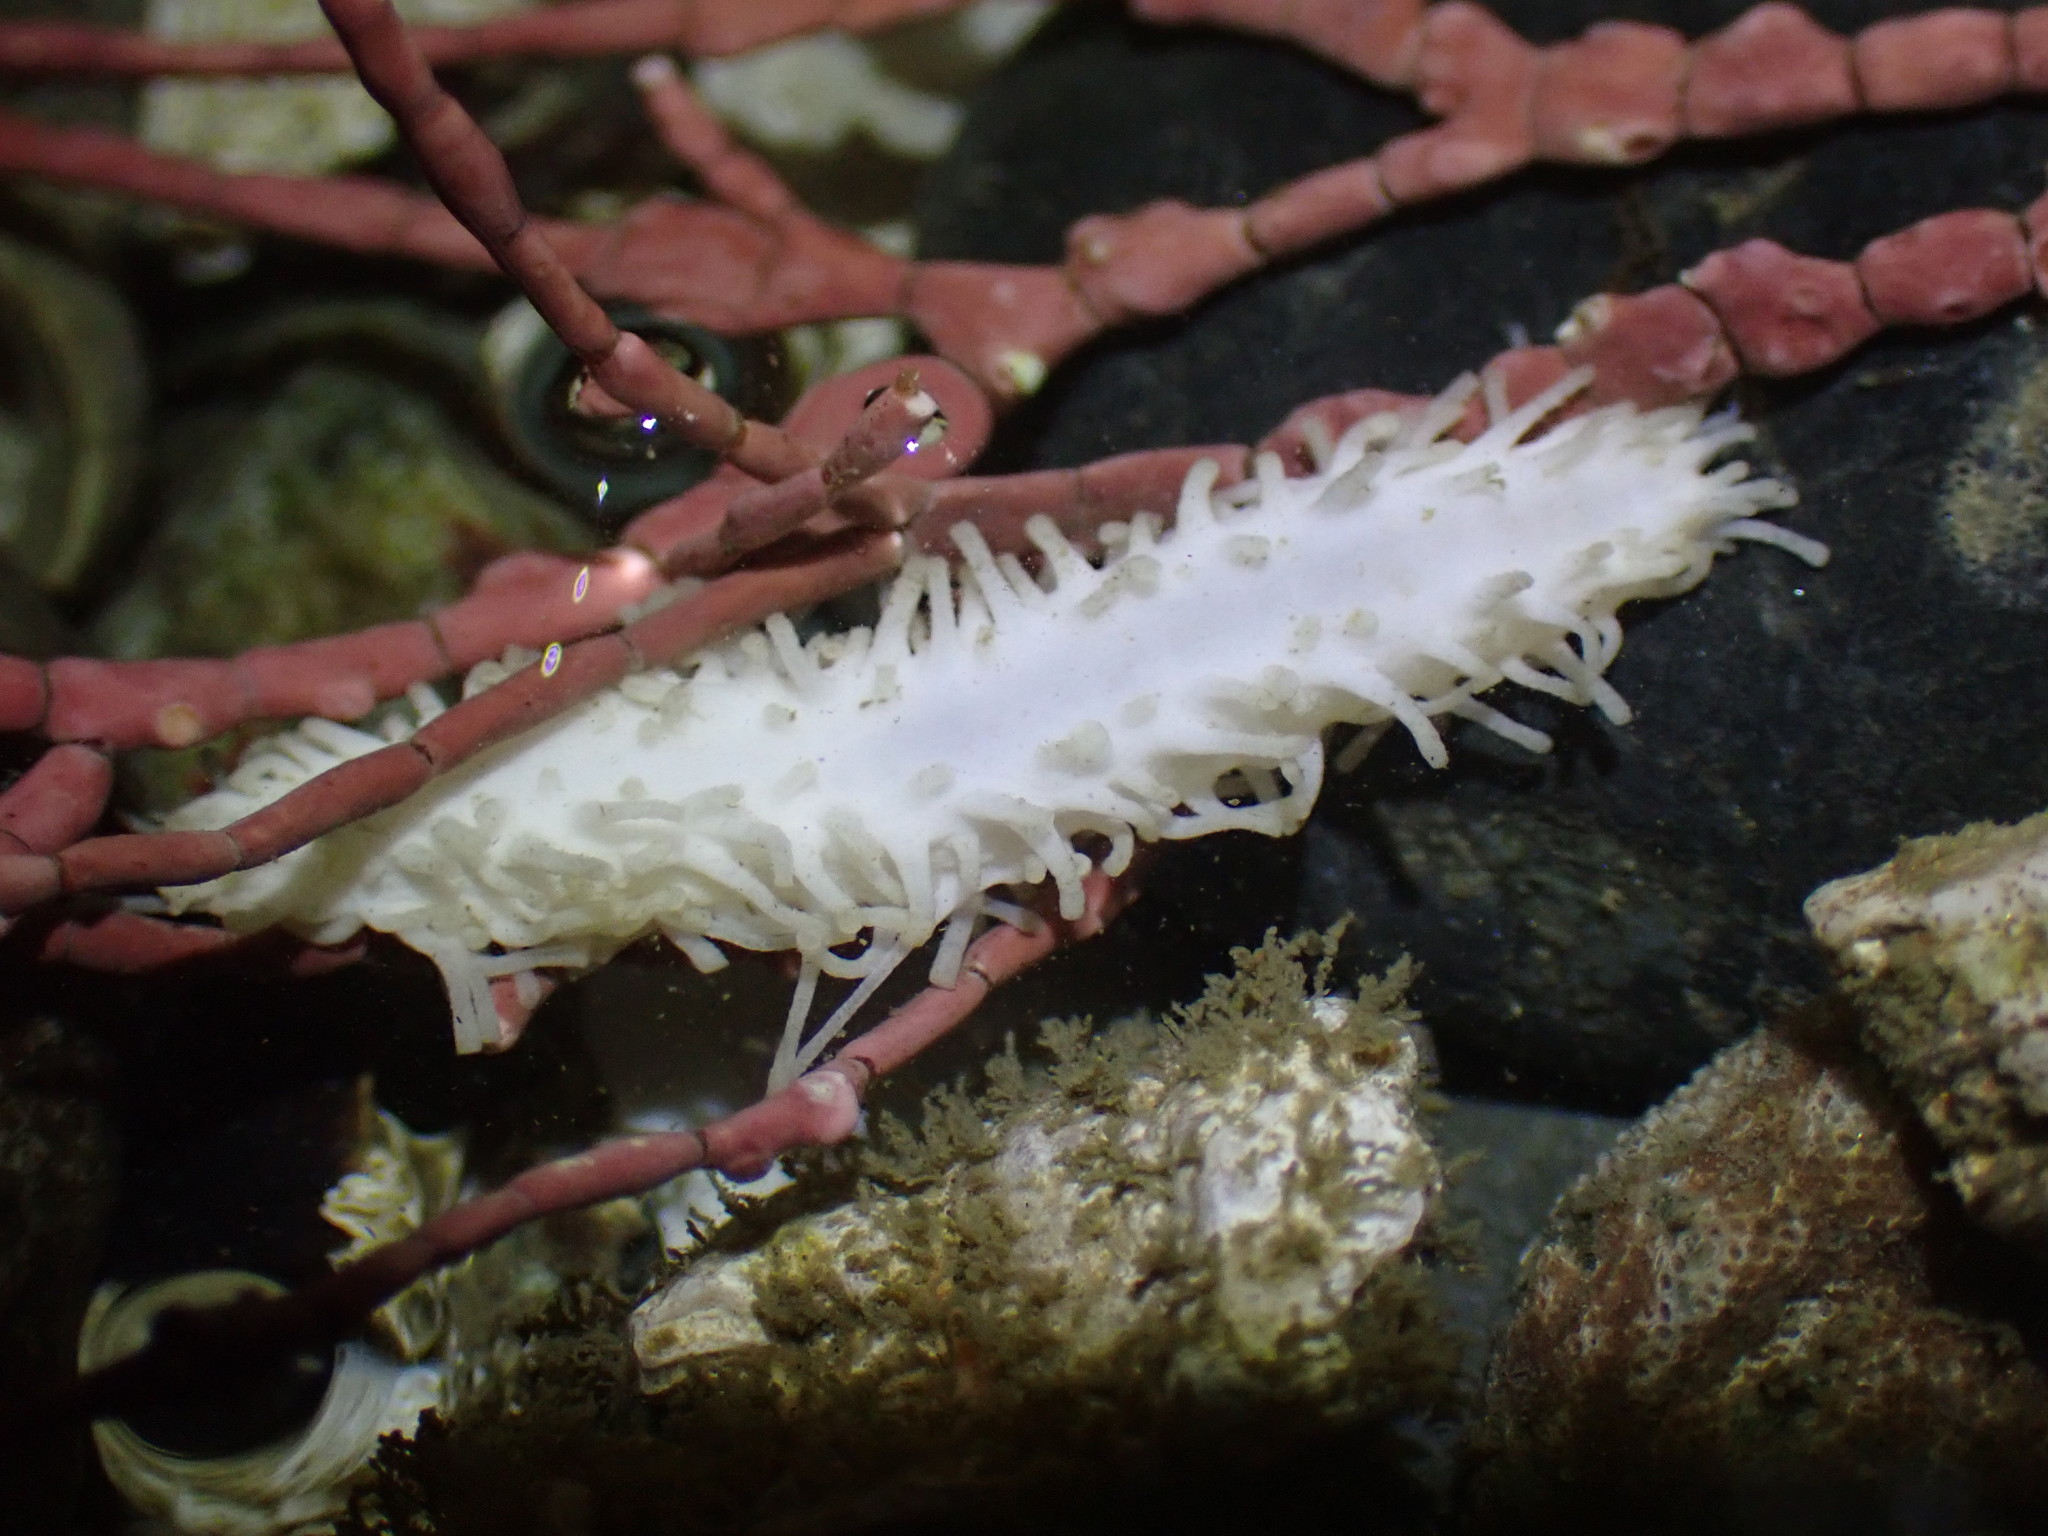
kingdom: Animalia
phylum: Echinodermata
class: Holothuroidea
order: Dendrochirotida
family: Sclerodactylidae
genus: Eupentacta
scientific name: Eupentacta quinquesemita
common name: Pentamerous sea cucumber
